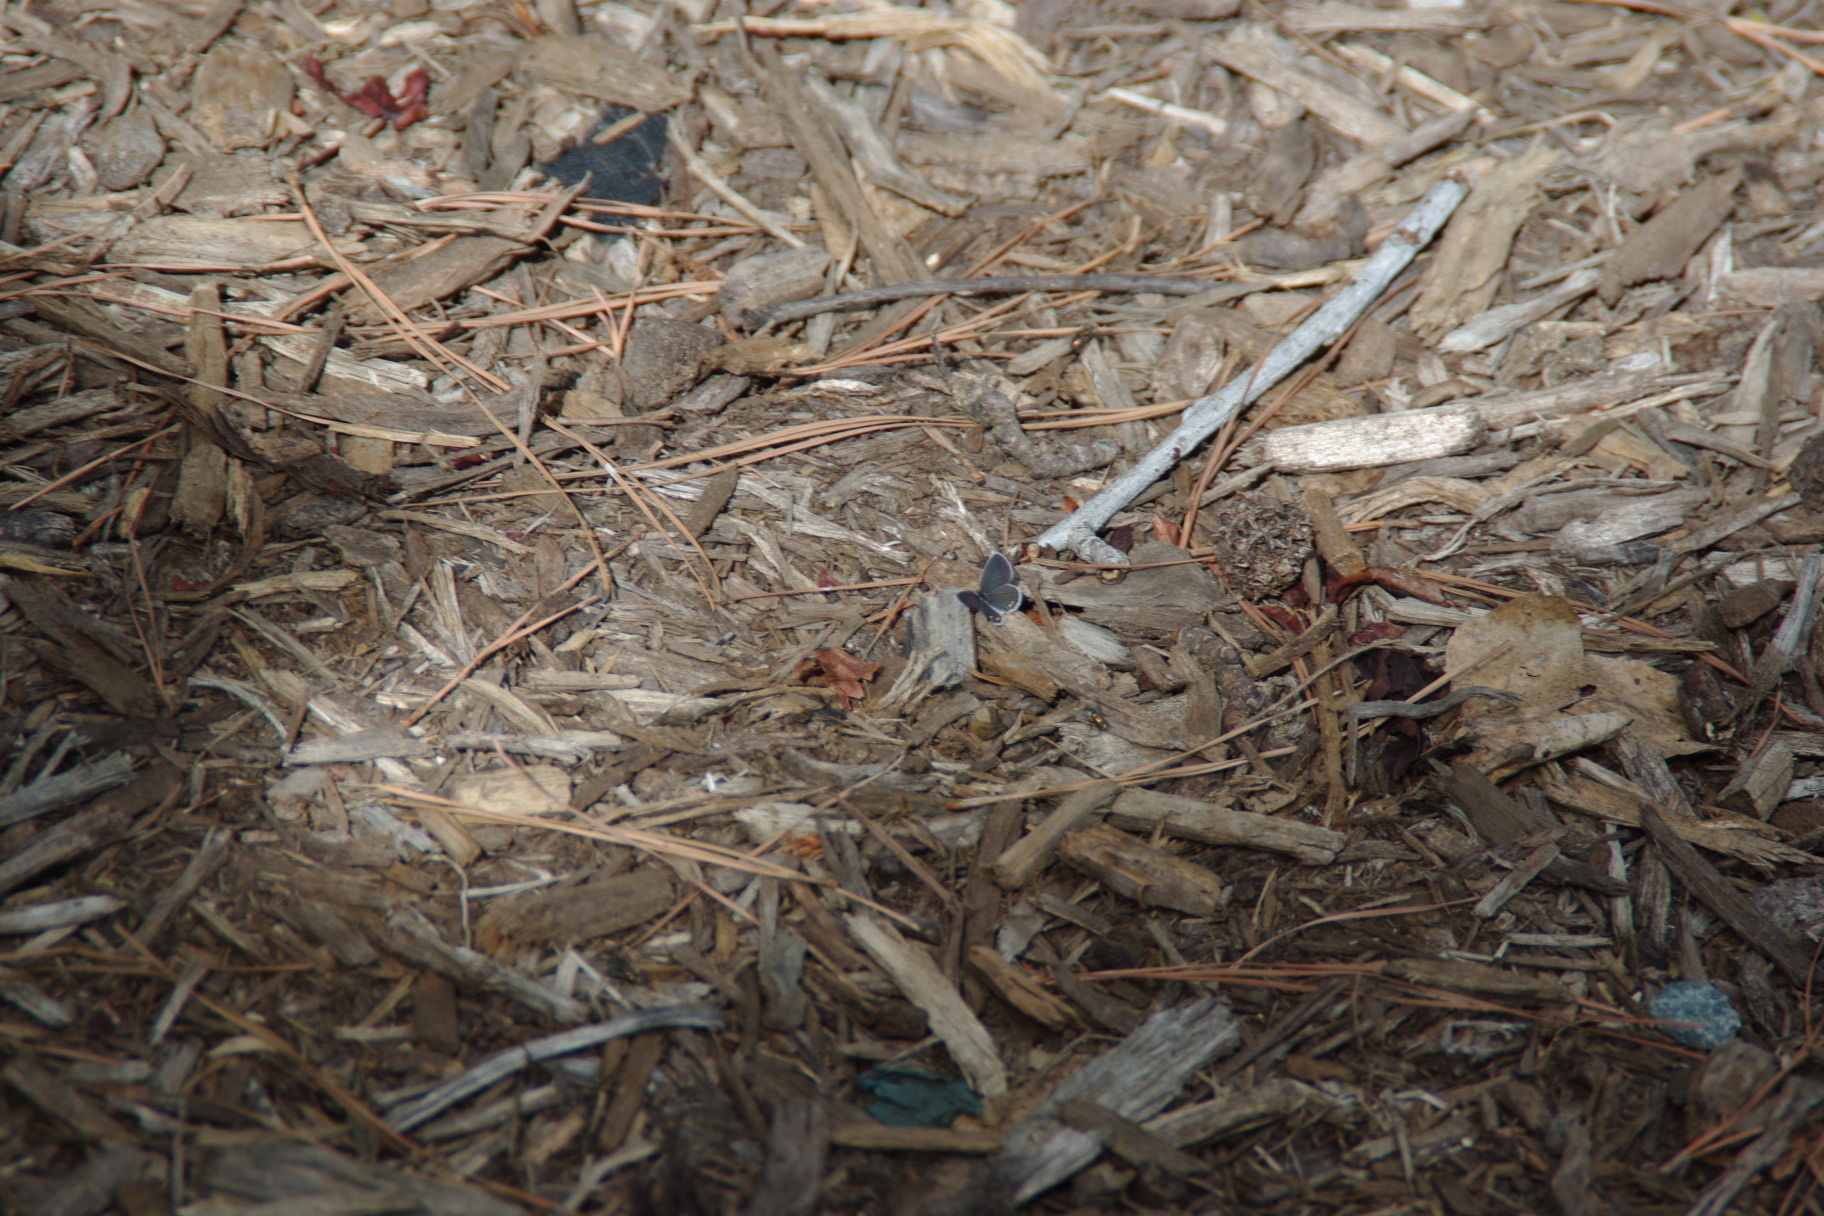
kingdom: Animalia
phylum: Arthropoda
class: Insecta
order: Lepidoptera
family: Lycaenidae
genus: Elkalyce
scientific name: Elkalyce comyntas
